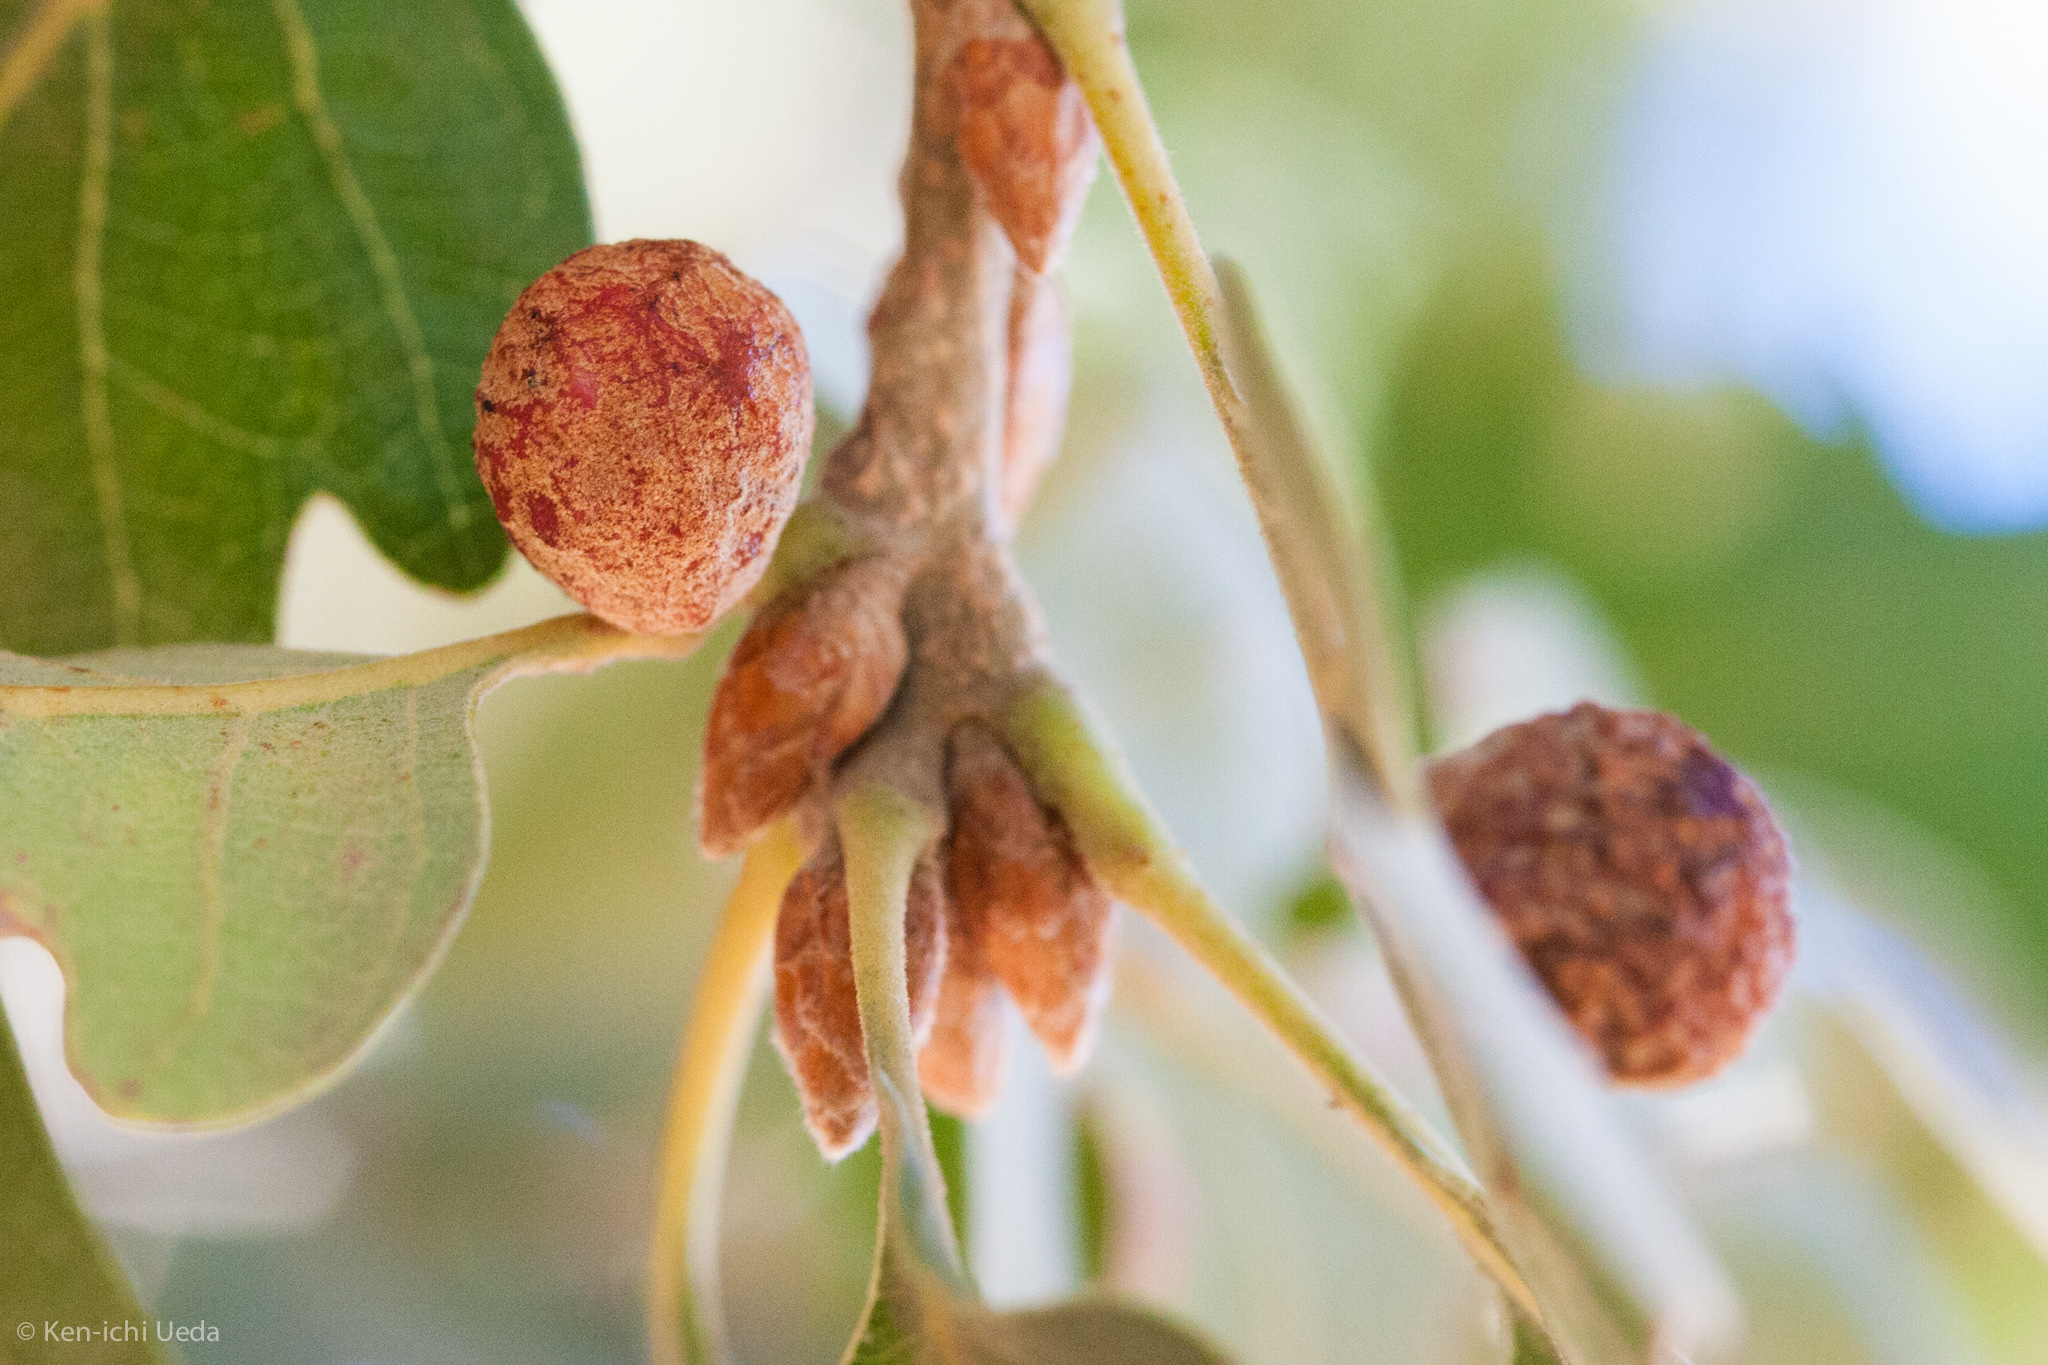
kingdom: Animalia
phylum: Arthropoda
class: Insecta
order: Hymenoptera
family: Cynipidae
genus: Cynips
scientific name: Cynips conspicua
